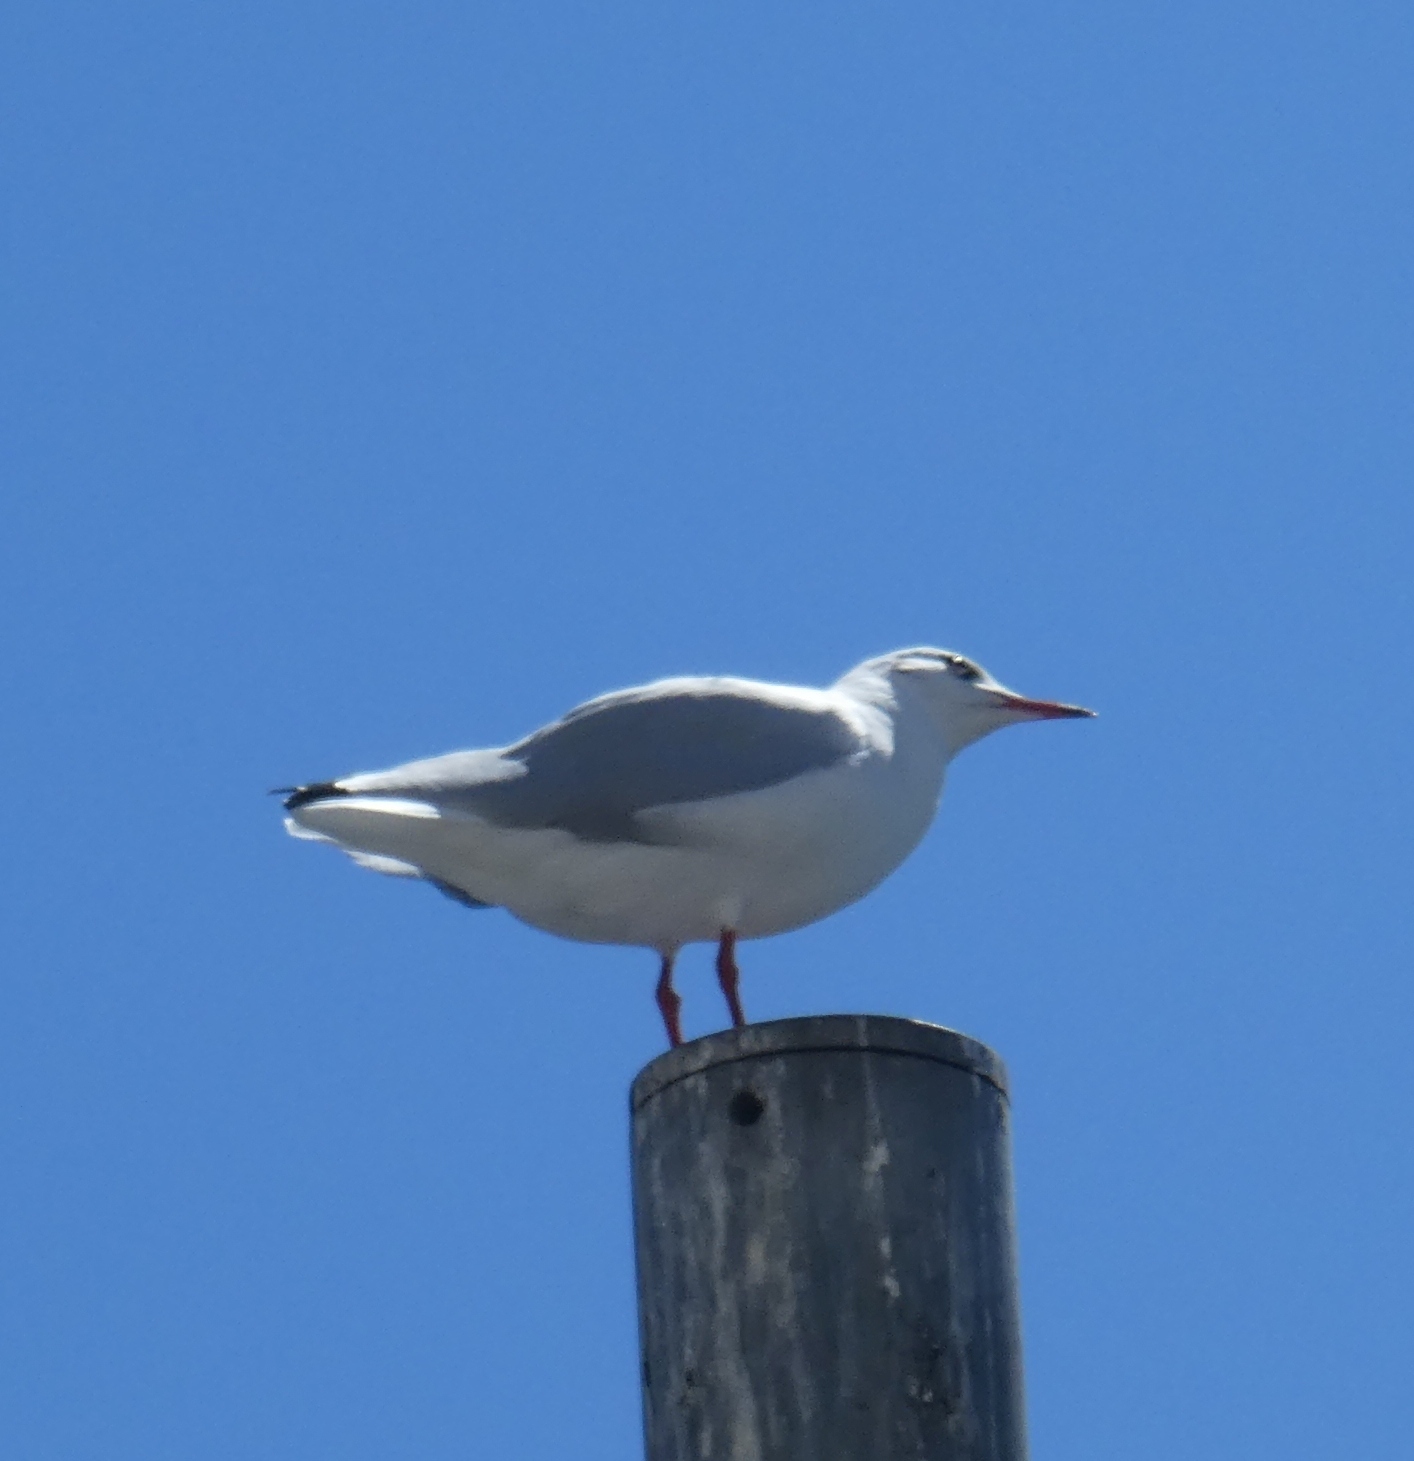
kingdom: Animalia
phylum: Chordata
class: Aves
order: Charadriiformes
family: Laridae
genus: Chroicocephalus
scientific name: Chroicocephalus ridibundus
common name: Black-headed gull
